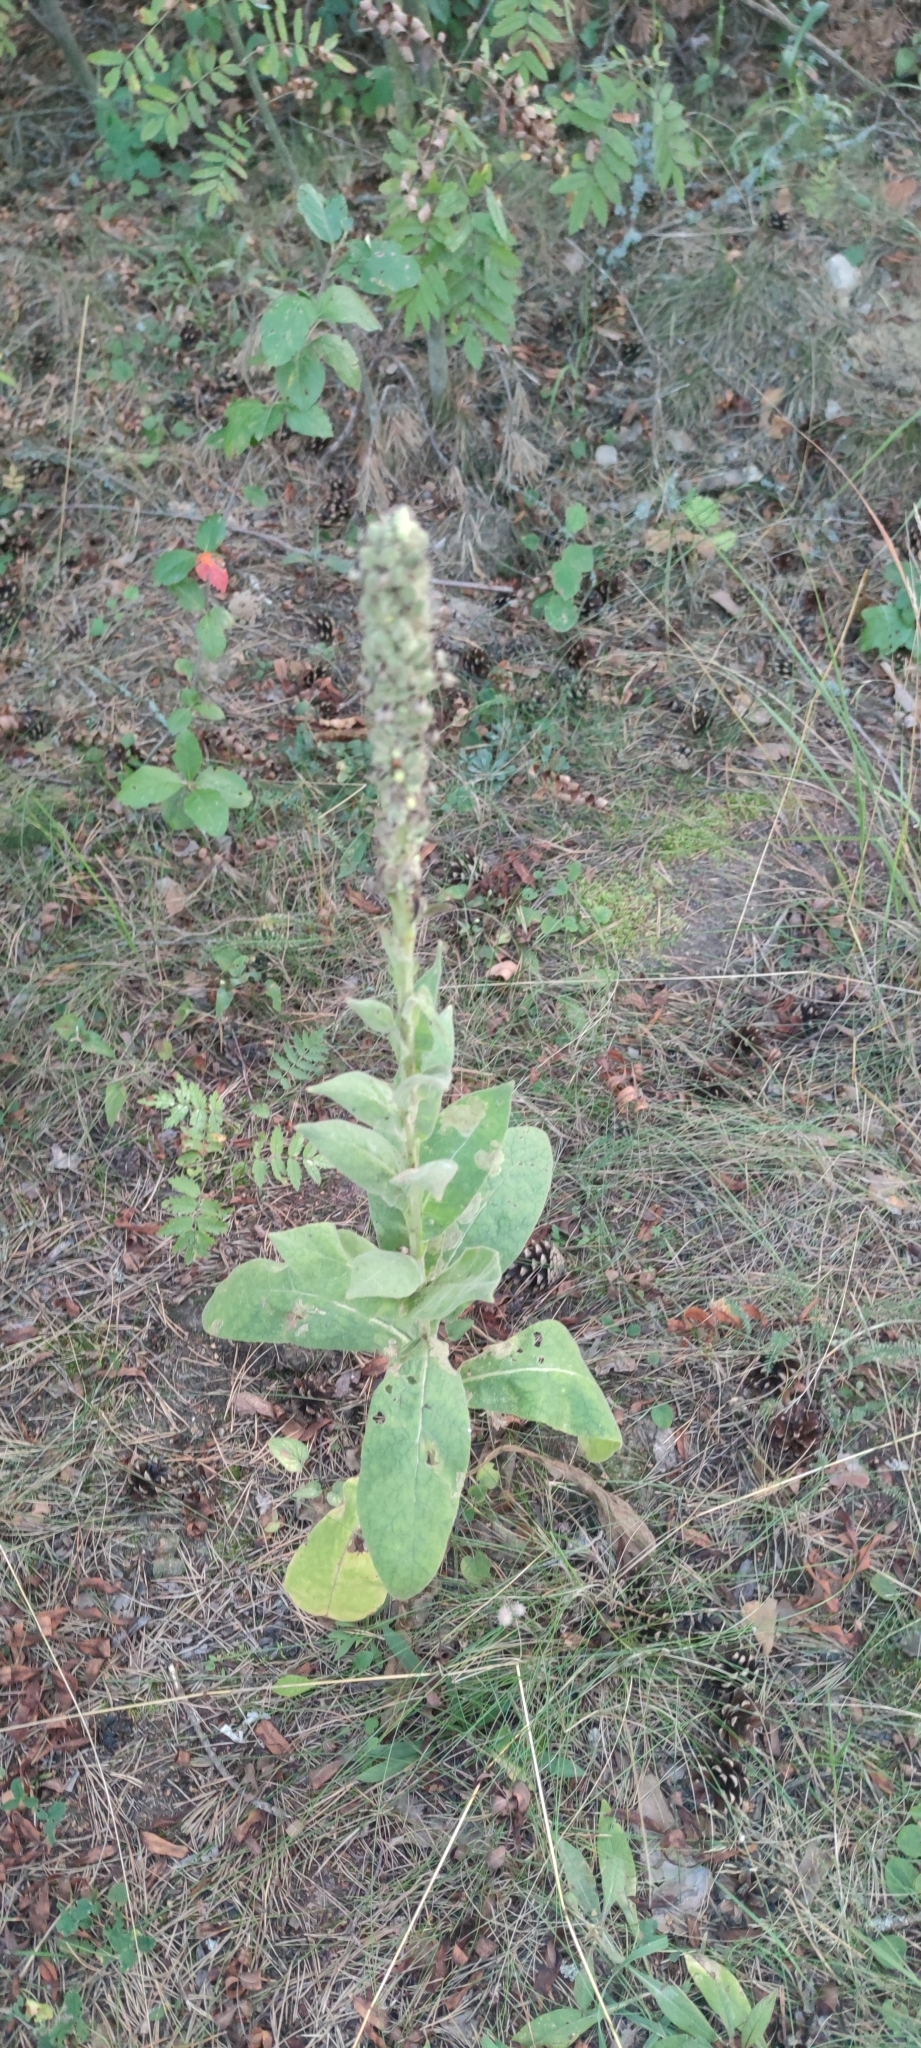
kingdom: Plantae
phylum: Tracheophyta
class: Magnoliopsida
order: Lamiales
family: Scrophulariaceae
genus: Verbascum
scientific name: Verbascum thapsus
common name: Common mullein
